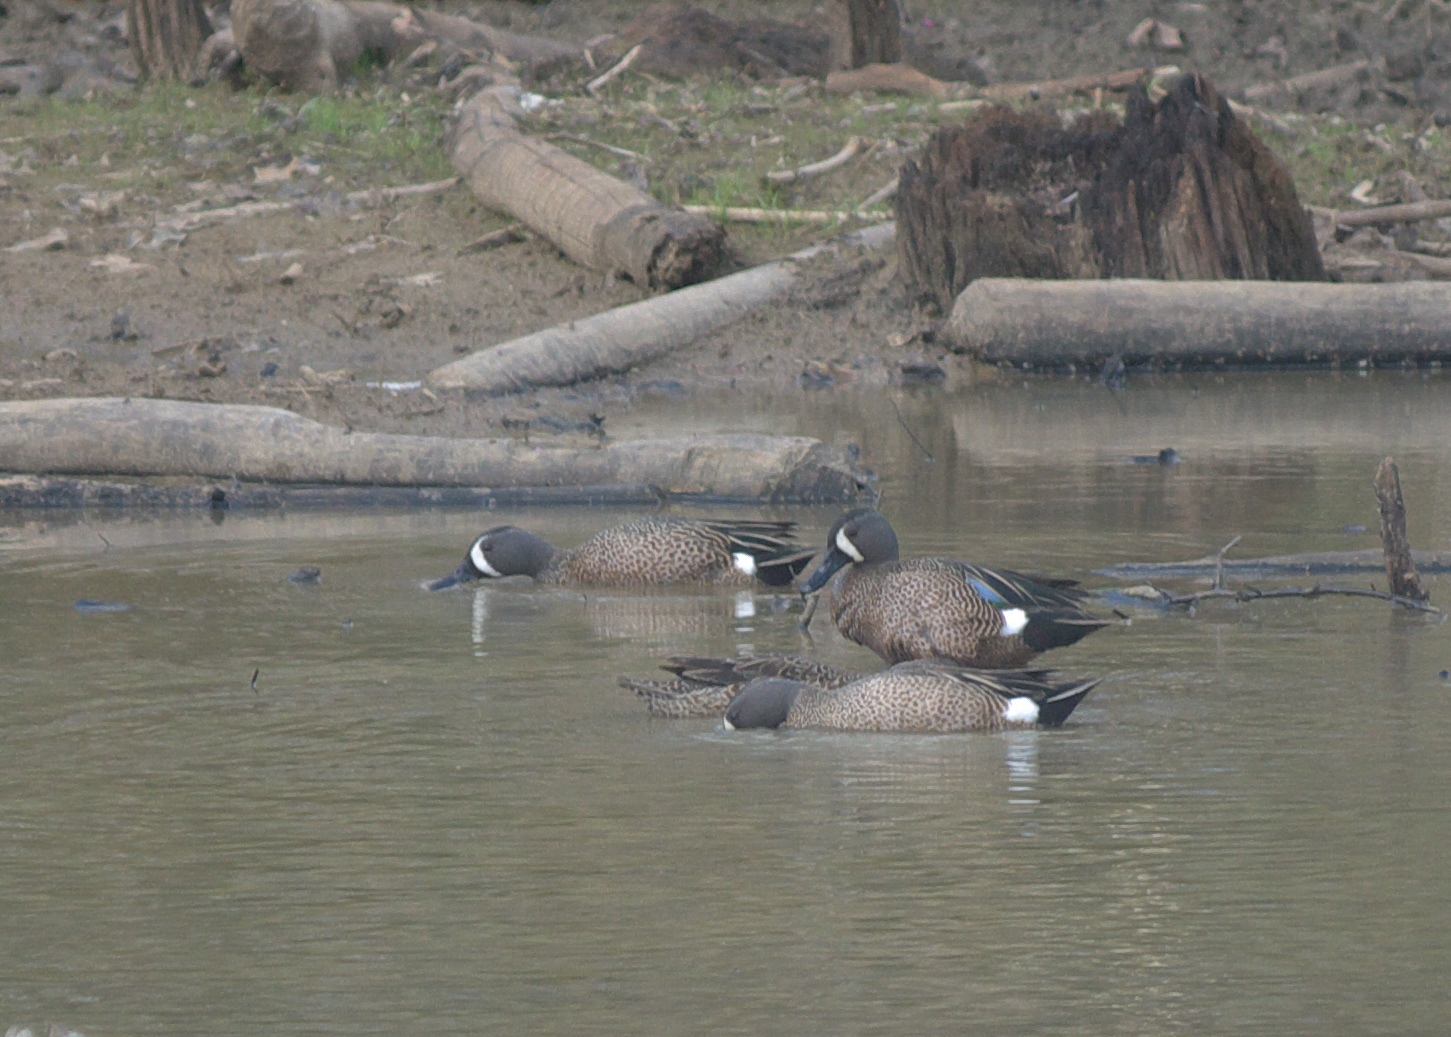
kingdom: Animalia
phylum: Chordata
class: Aves
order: Anseriformes
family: Anatidae
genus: Spatula
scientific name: Spatula discors
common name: Blue-winged teal
